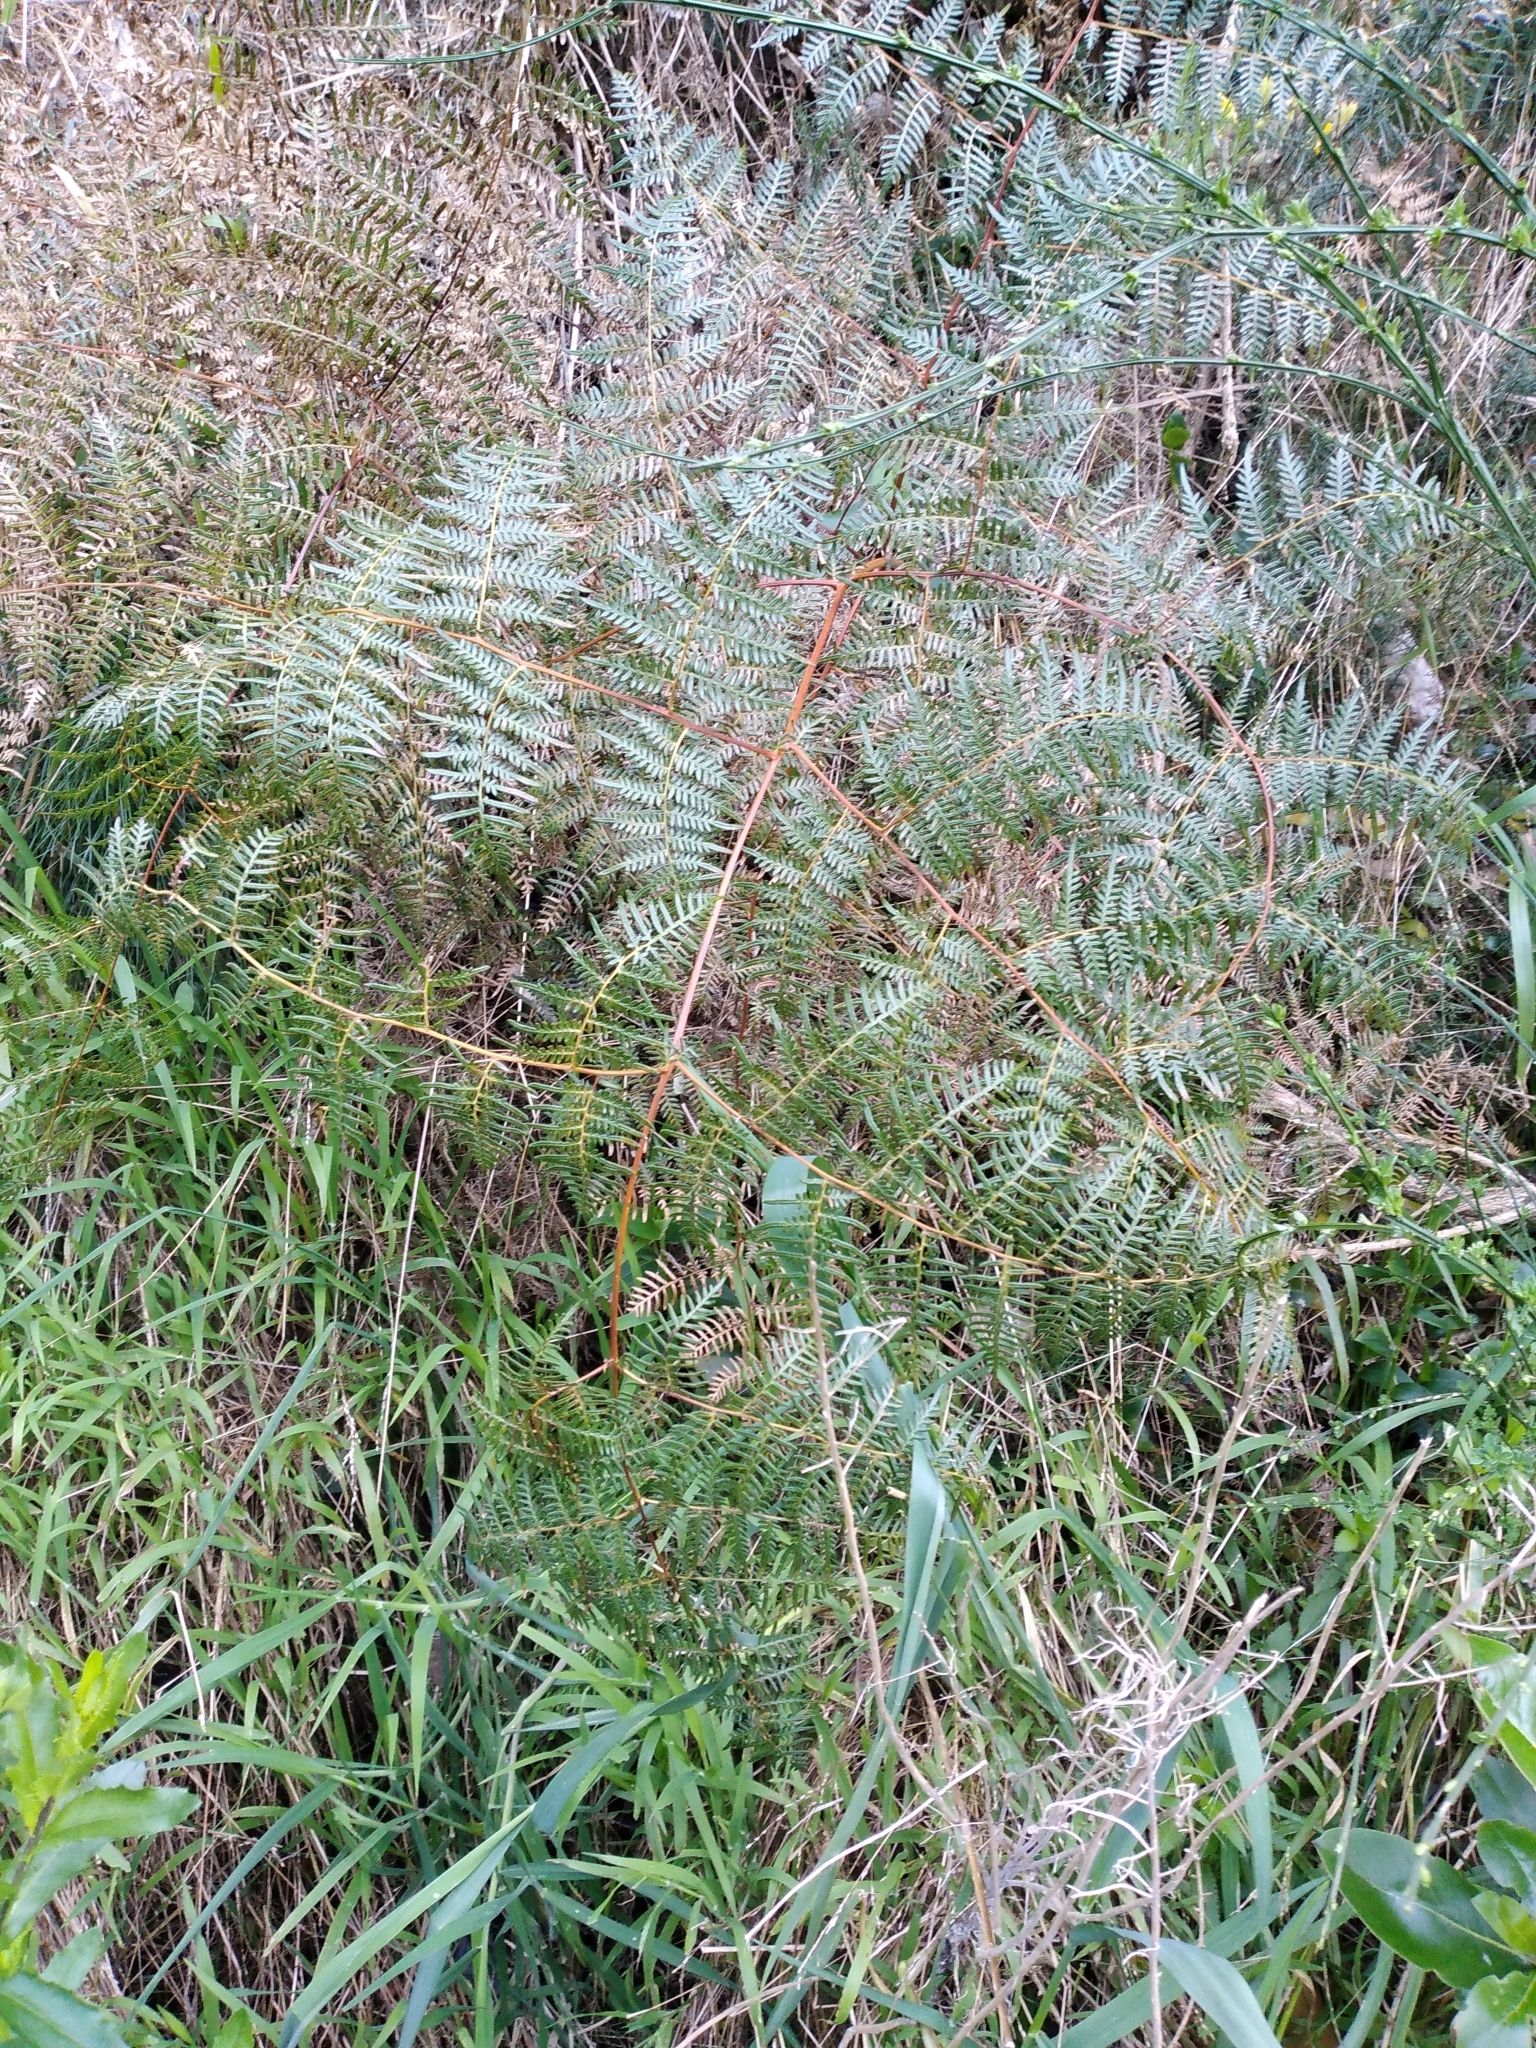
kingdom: Plantae
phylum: Tracheophyta
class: Polypodiopsida
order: Polypodiales
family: Dennstaedtiaceae
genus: Pteridium
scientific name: Pteridium esculentum
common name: Bracken fern
